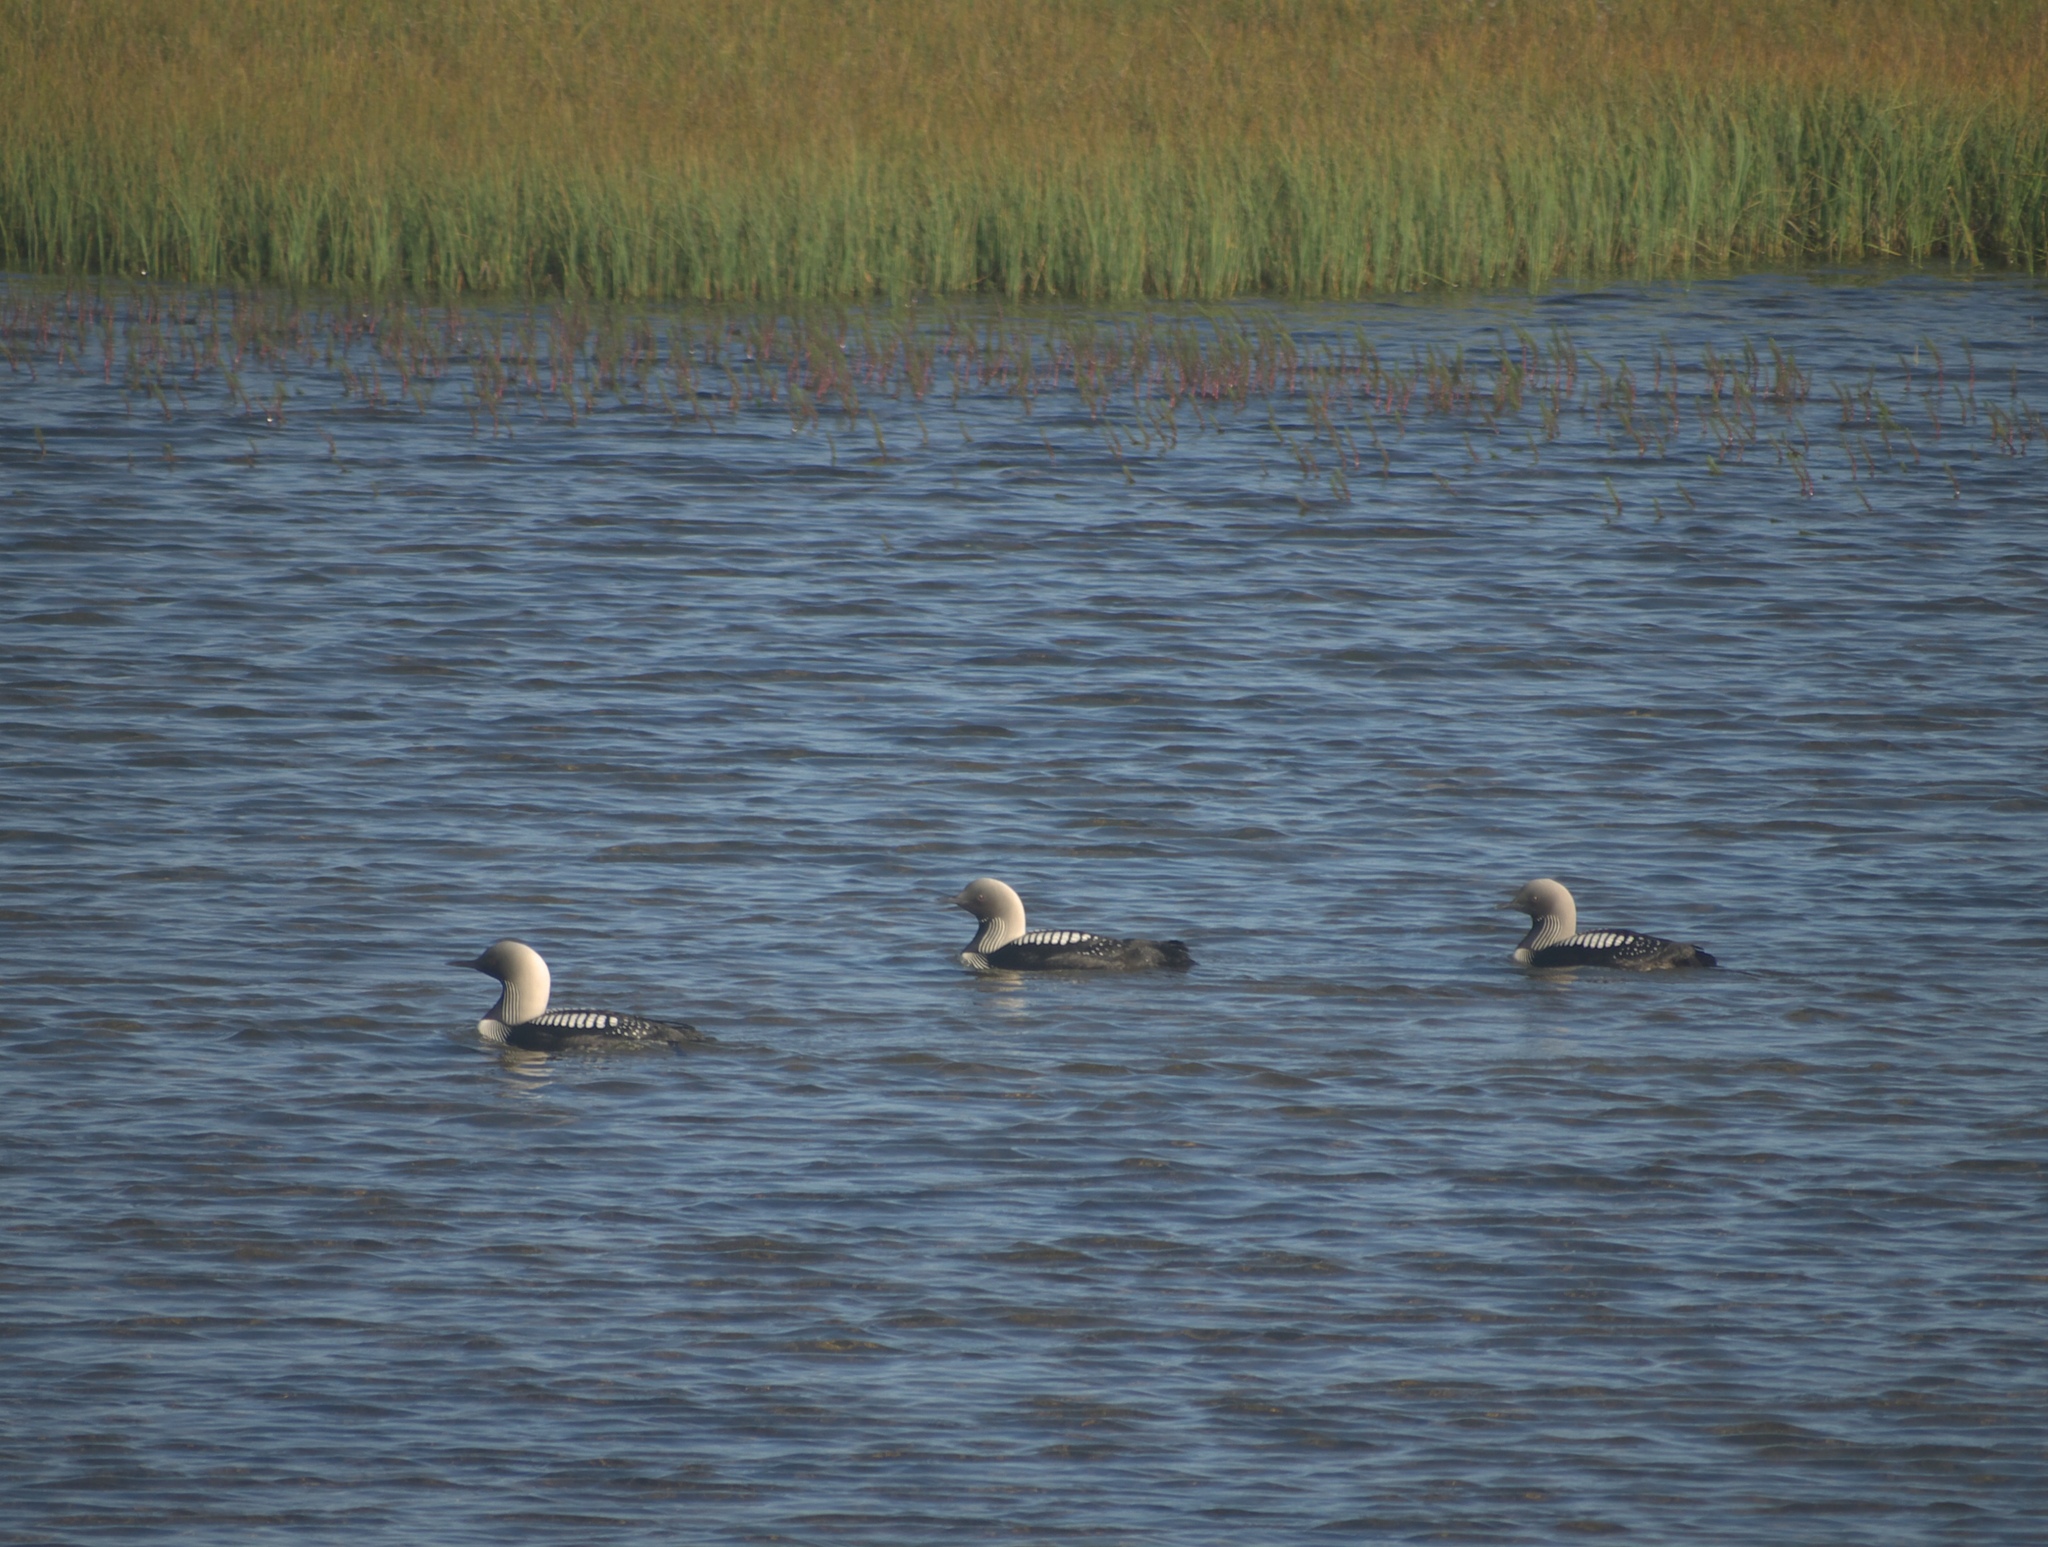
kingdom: Animalia
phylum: Chordata
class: Aves
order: Gaviiformes
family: Gaviidae
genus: Gavia
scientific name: Gavia pacifica
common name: Pacific loon
